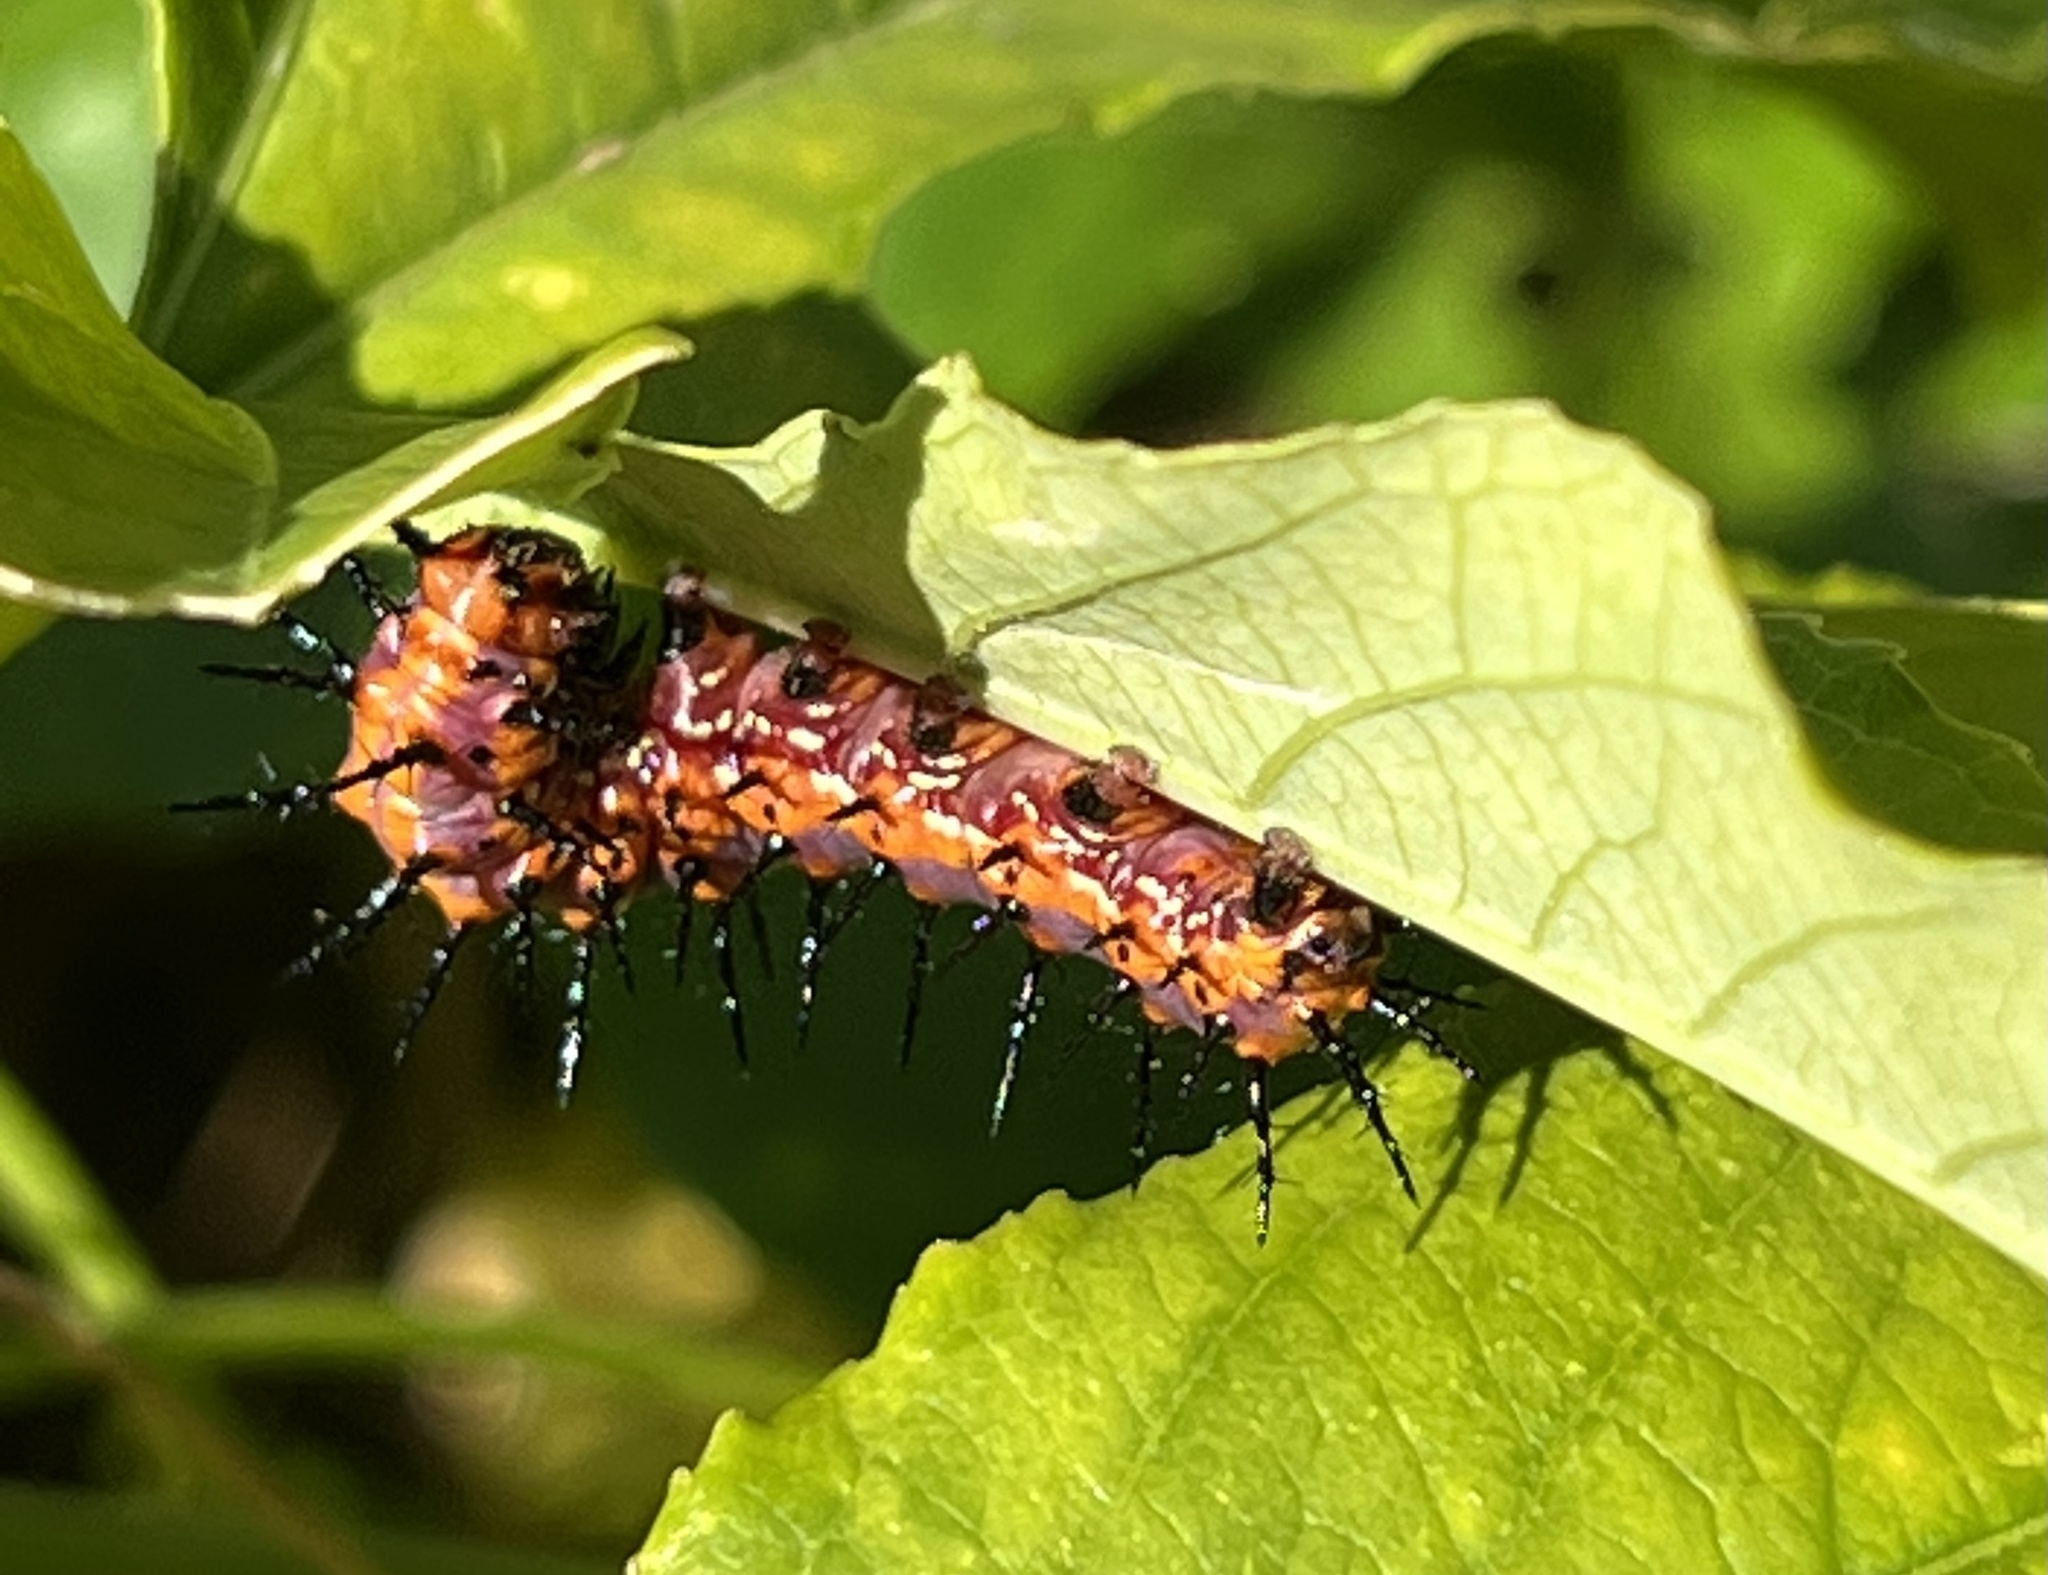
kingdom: Animalia
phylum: Arthropoda
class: Insecta
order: Lepidoptera
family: Nymphalidae
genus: Dione
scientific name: Dione vanillae
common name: Gulf fritillary
